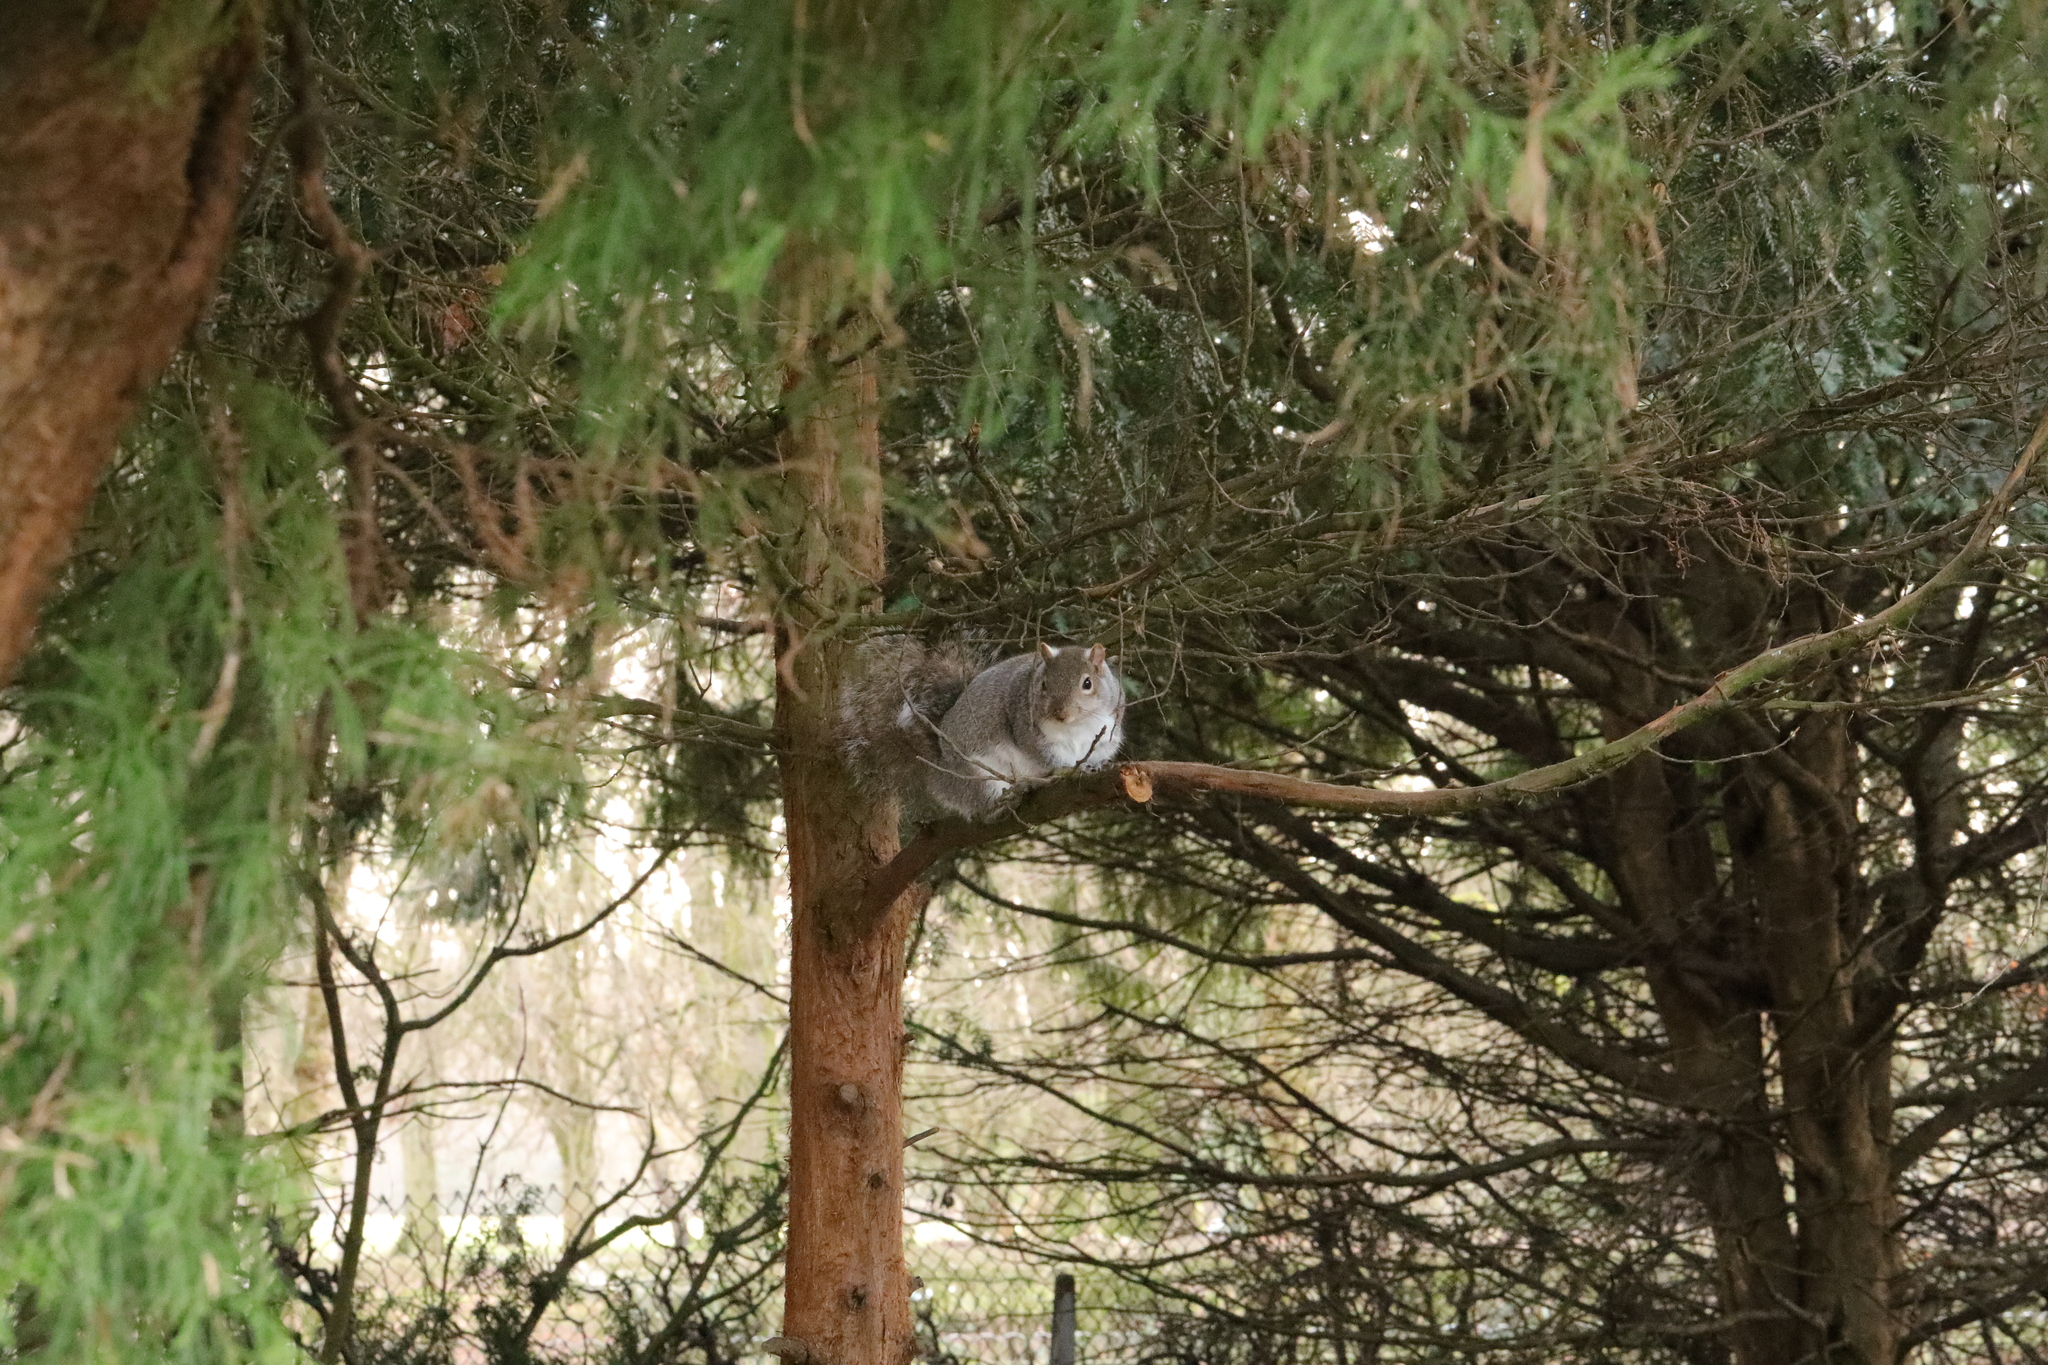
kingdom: Animalia
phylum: Chordata
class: Mammalia
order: Rodentia
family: Sciuridae
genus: Sciurus
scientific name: Sciurus carolinensis
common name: Eastern gray squirrel
